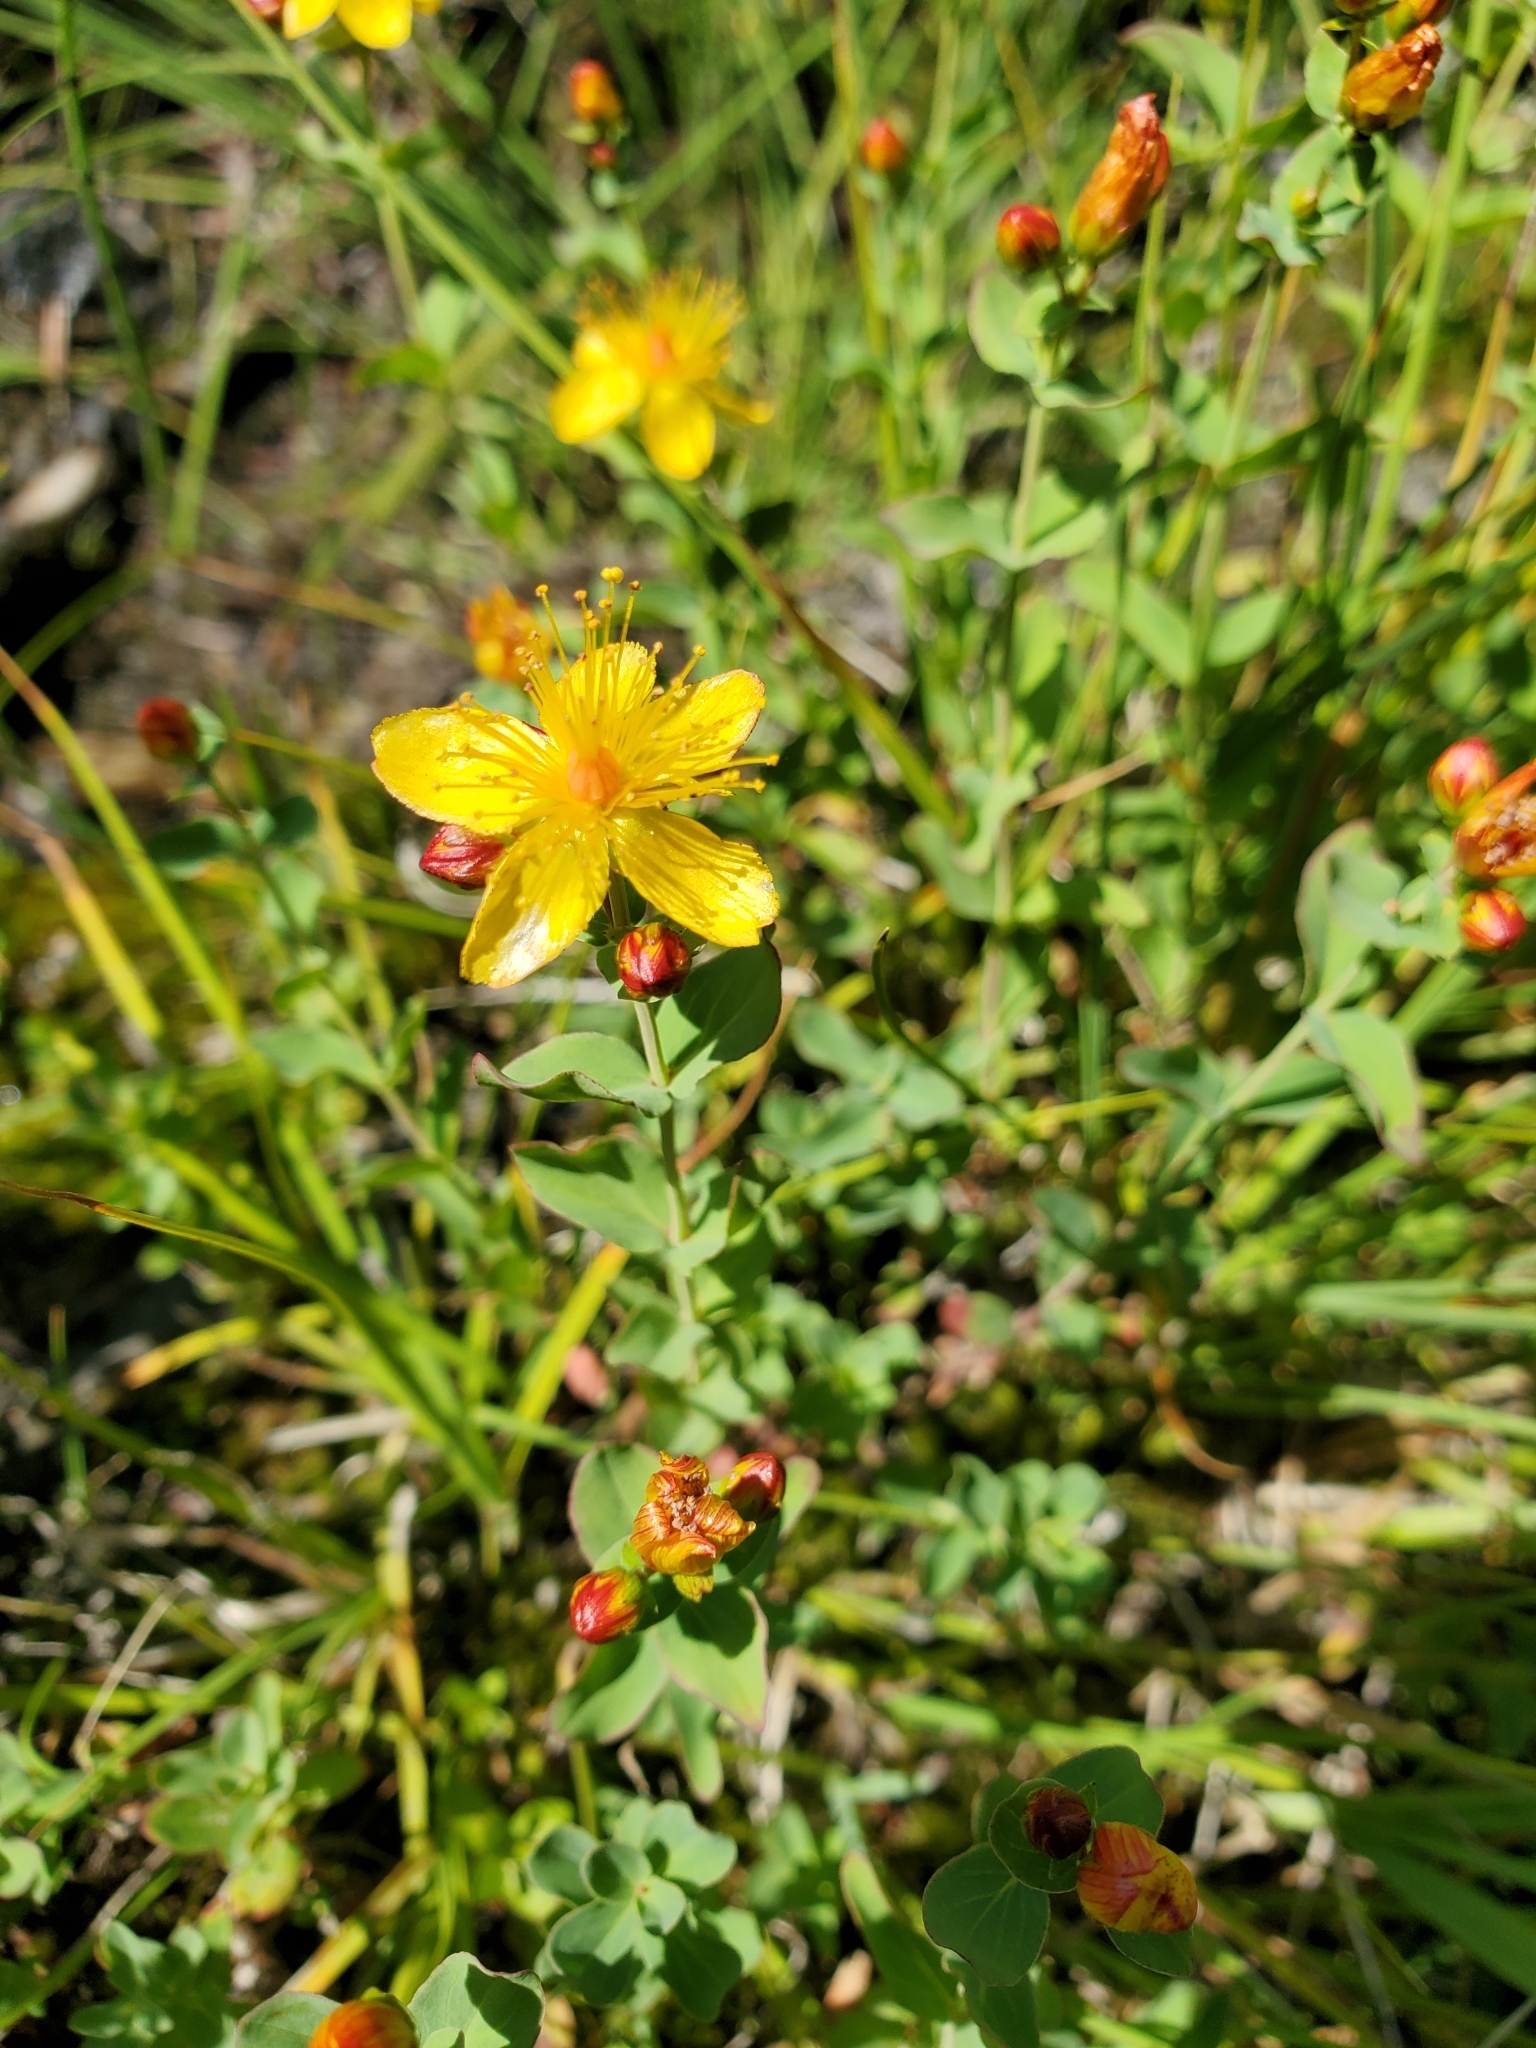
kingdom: Plantae
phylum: Tracheophyta
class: Magnoliopsida
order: Malpighiales
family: Hypericaceae
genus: Hypericum
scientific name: Hypericum scouleri
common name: Scouler's st. john's-wort
